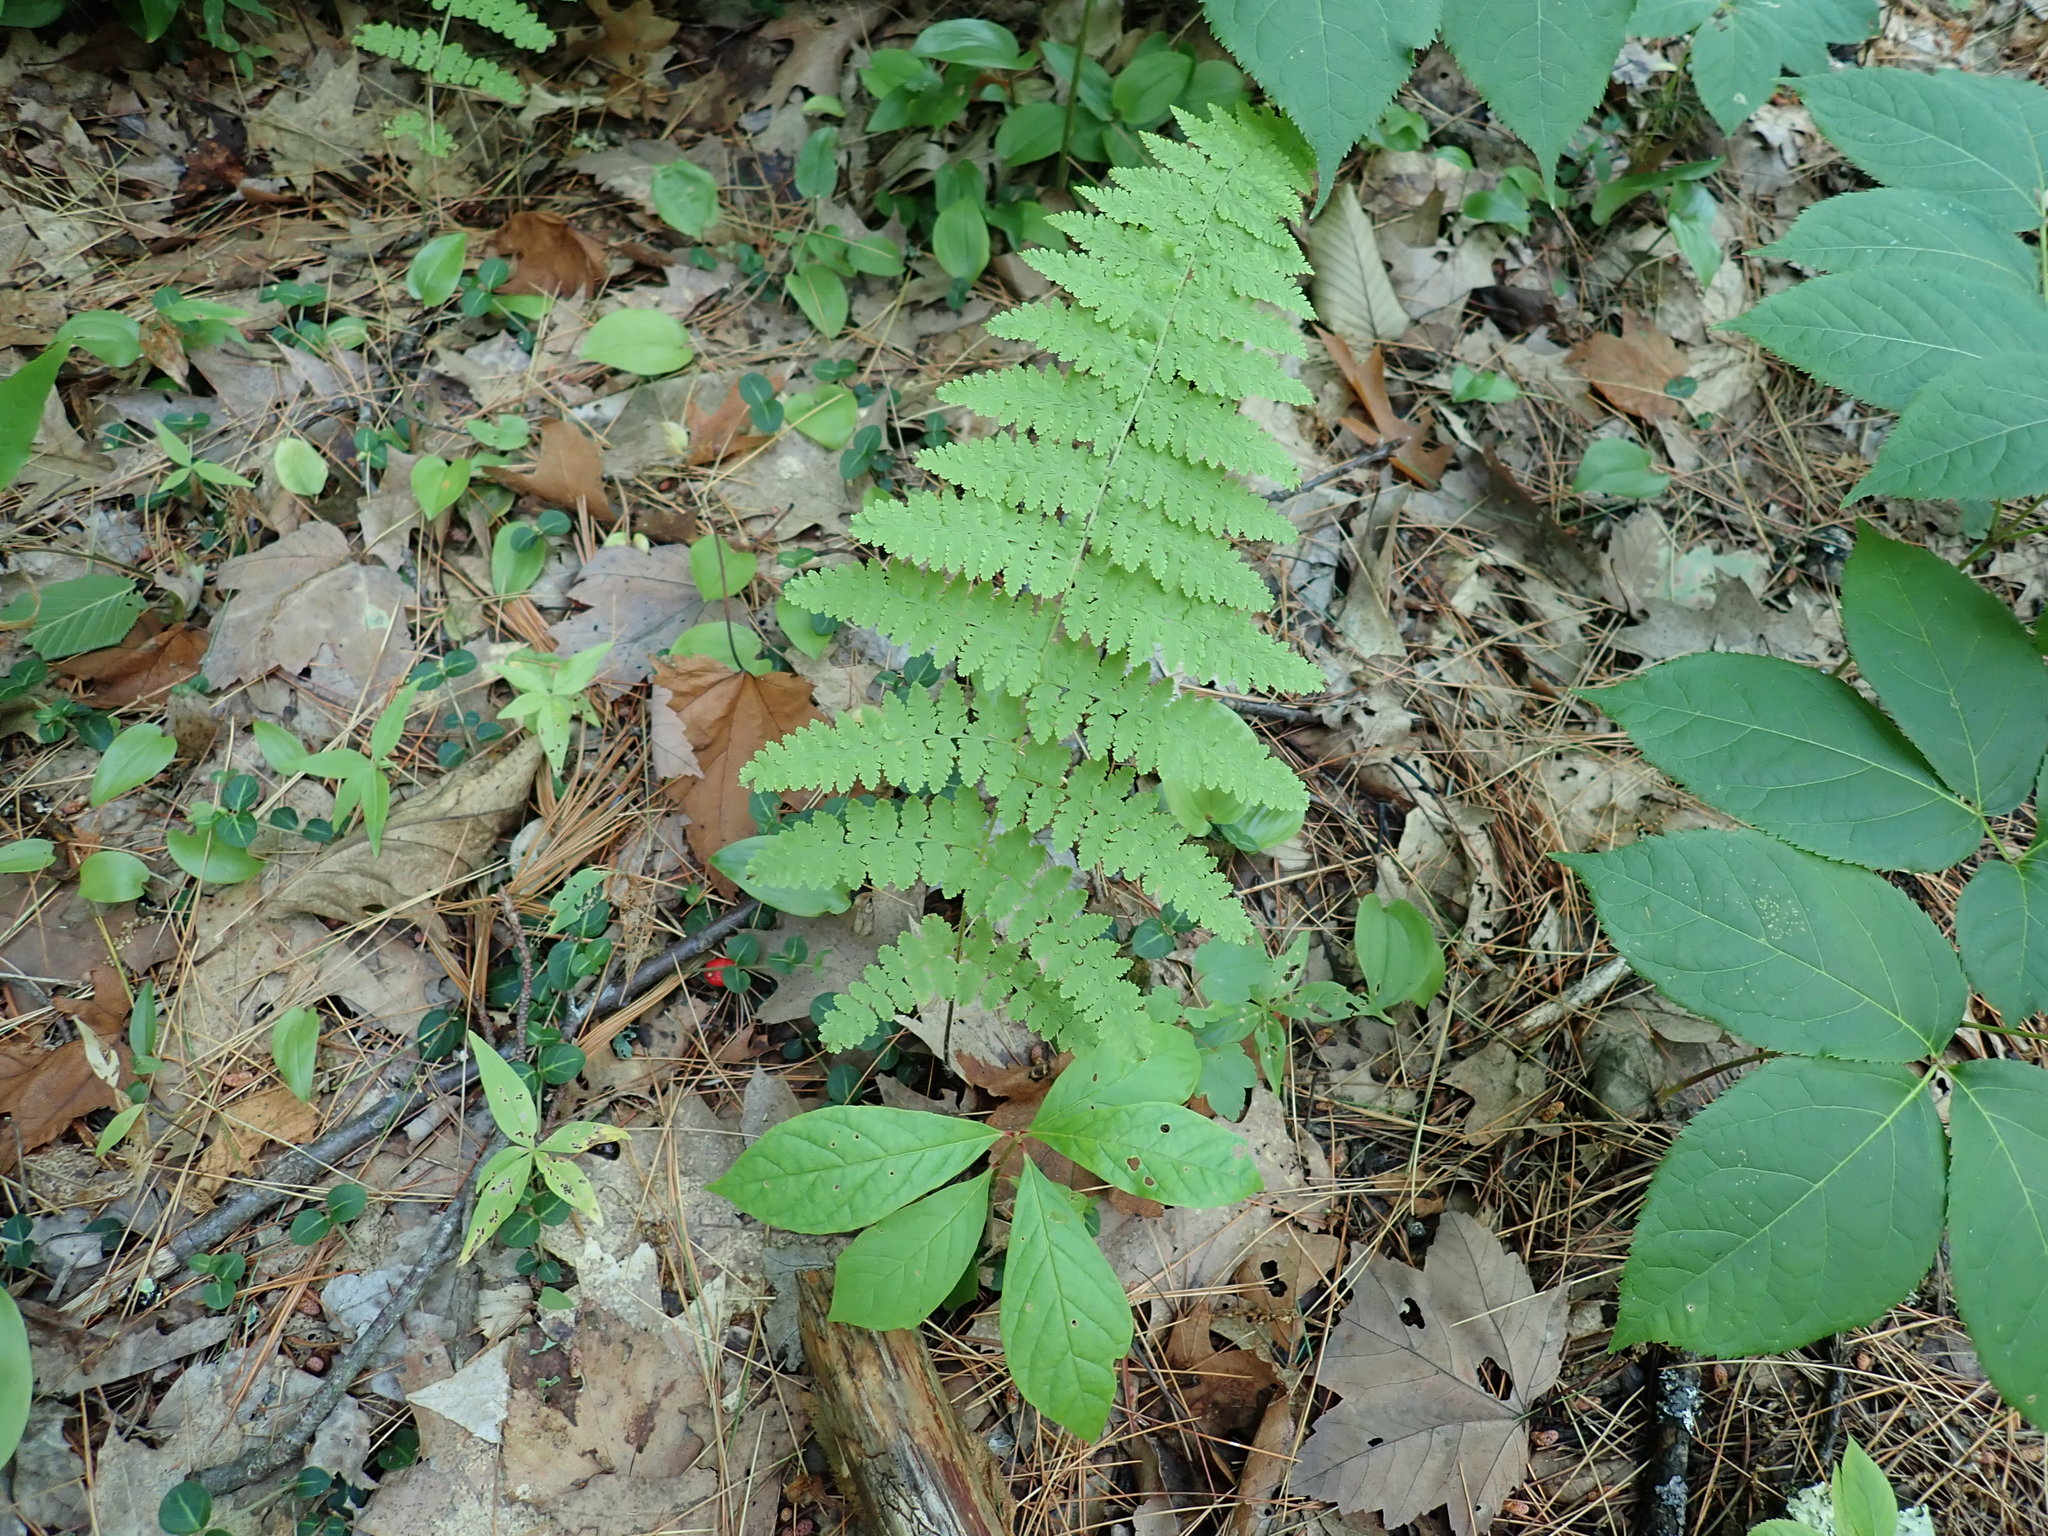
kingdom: Plantae
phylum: Tracheophyta
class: Polypodiopsida
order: Polypodiales
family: Dennstaedtiaceae
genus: Sitobolium
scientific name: Sitobolium punctilobum
